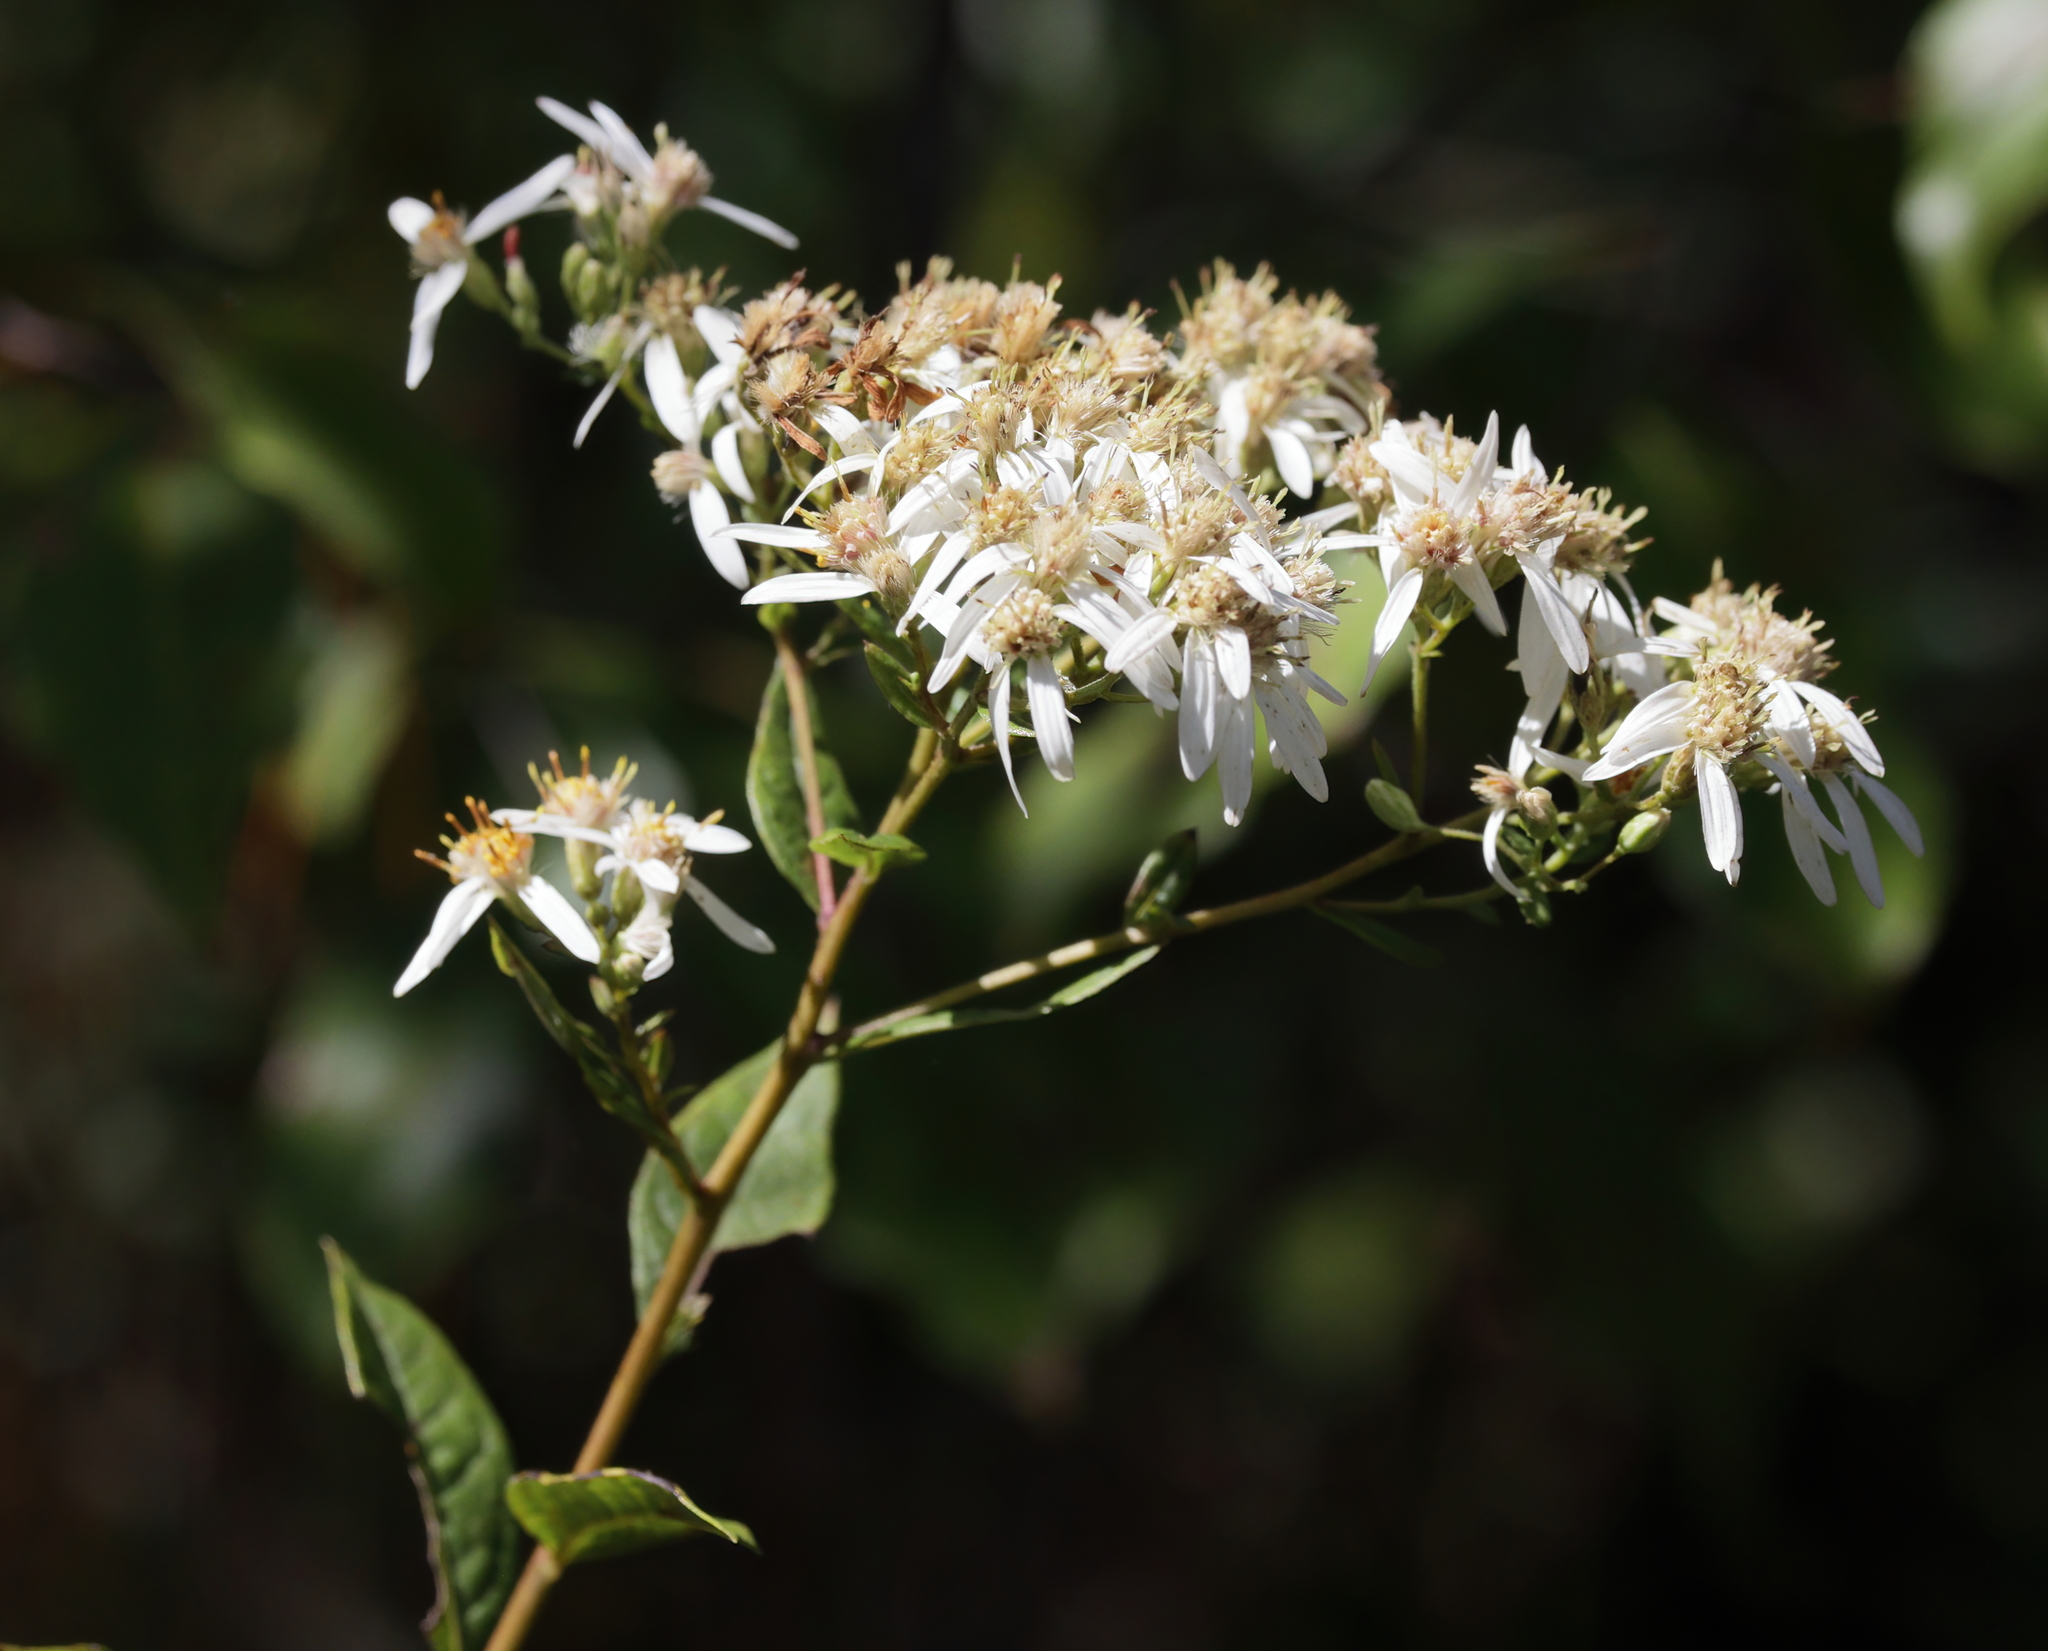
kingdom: Plantae
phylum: Tracheophyta
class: Magnoliopsida
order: Asterales
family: Asteraceae
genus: Doellingeria
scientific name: Doellingeria sericocarpoides
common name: Southern tall flat-top aster
